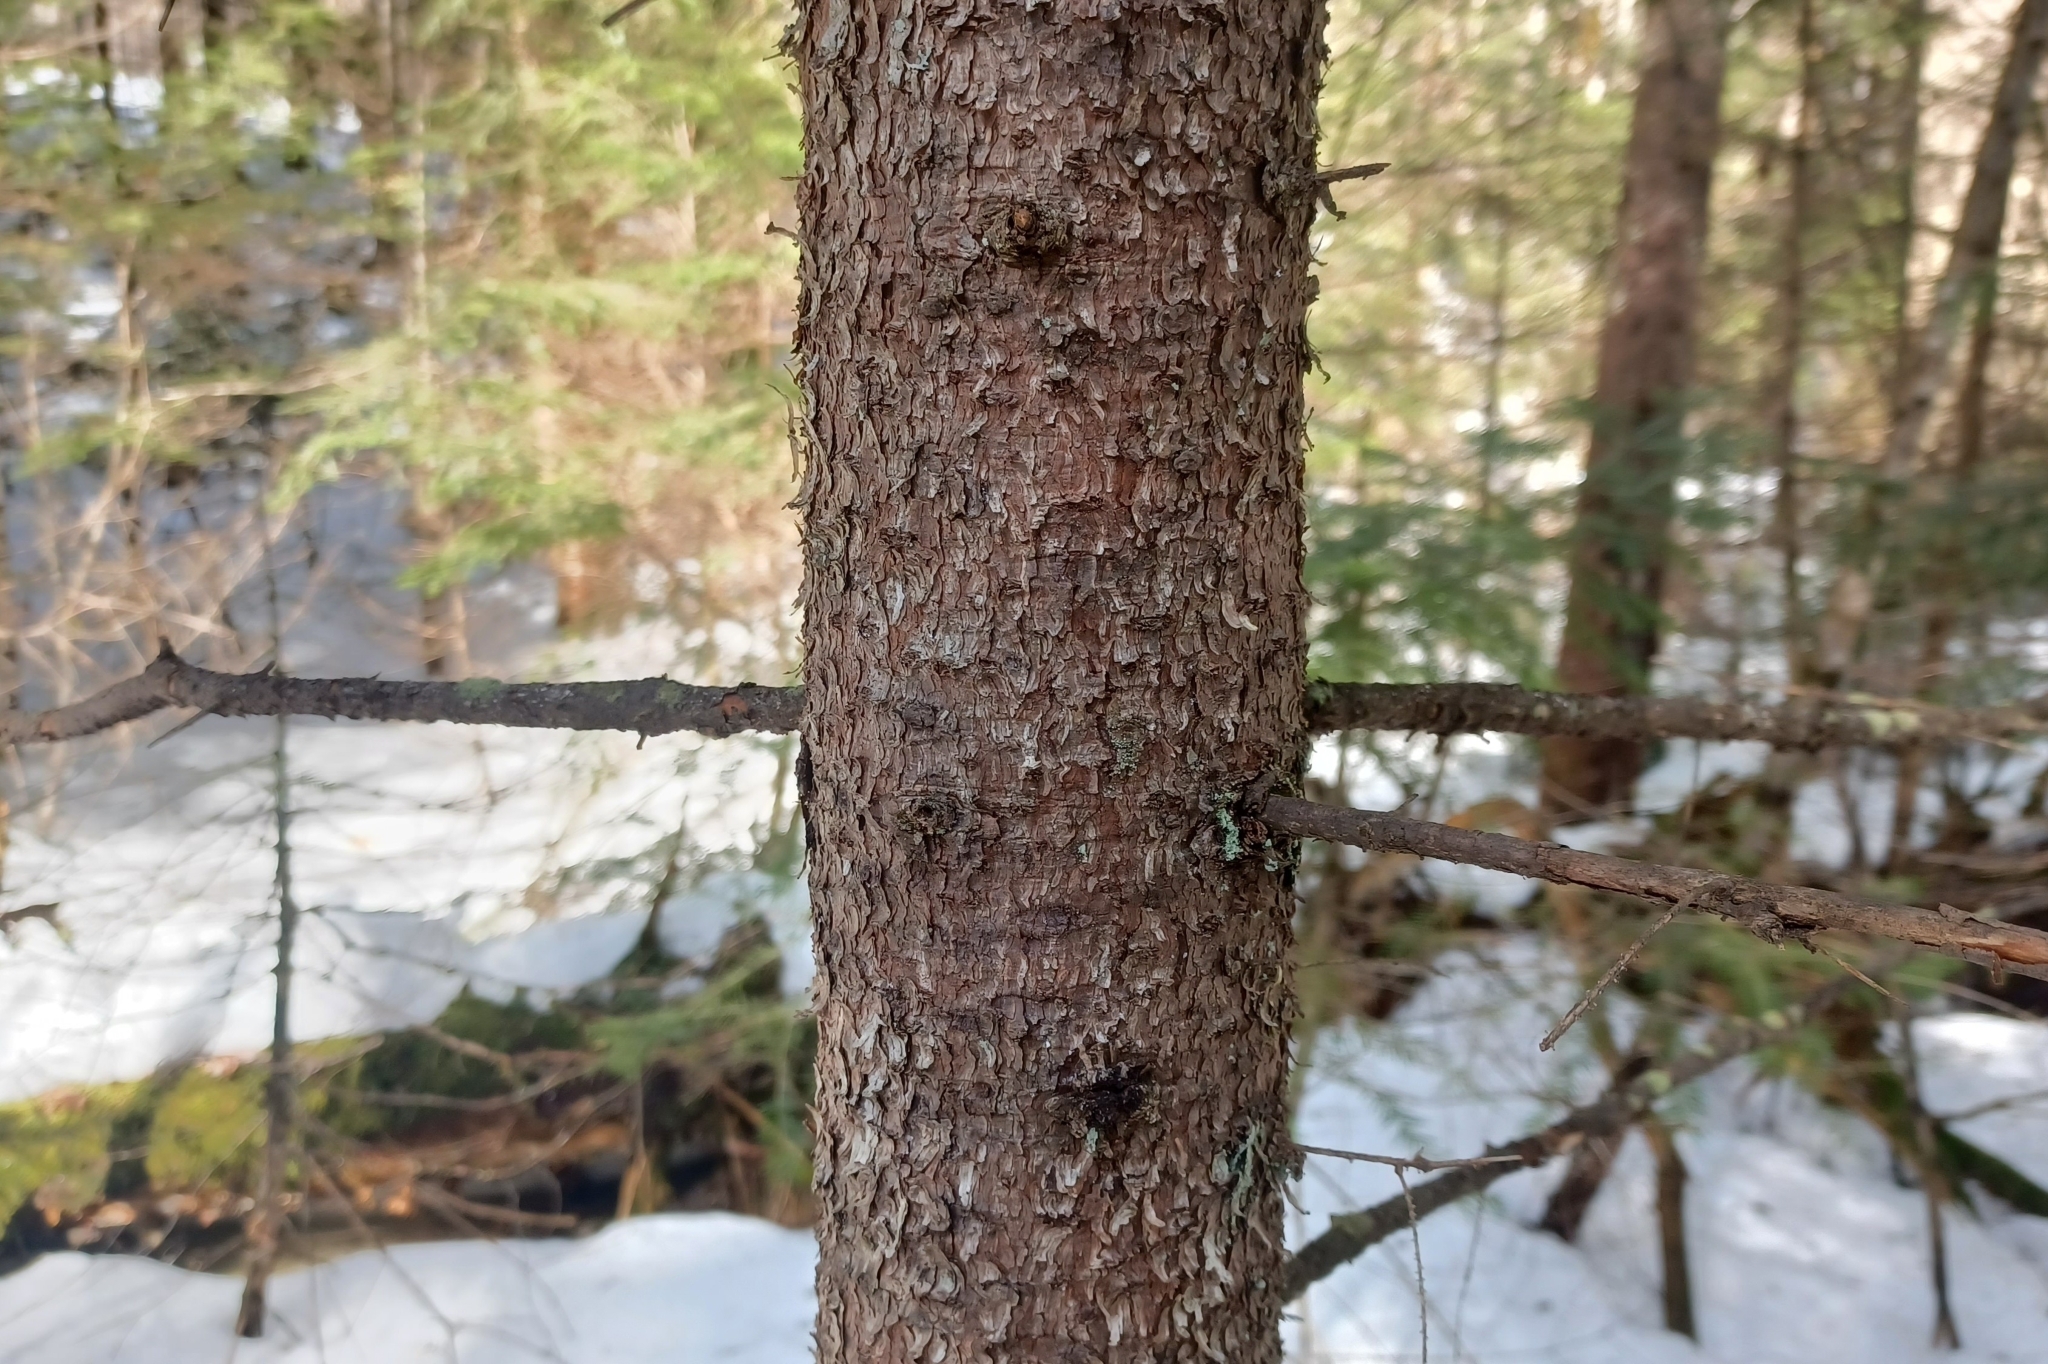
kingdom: Plantae
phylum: Tracheophyta
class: Pinopsida
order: Pinales
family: Pinaceae
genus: Picea
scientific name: Picea rubens
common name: Red spruce
